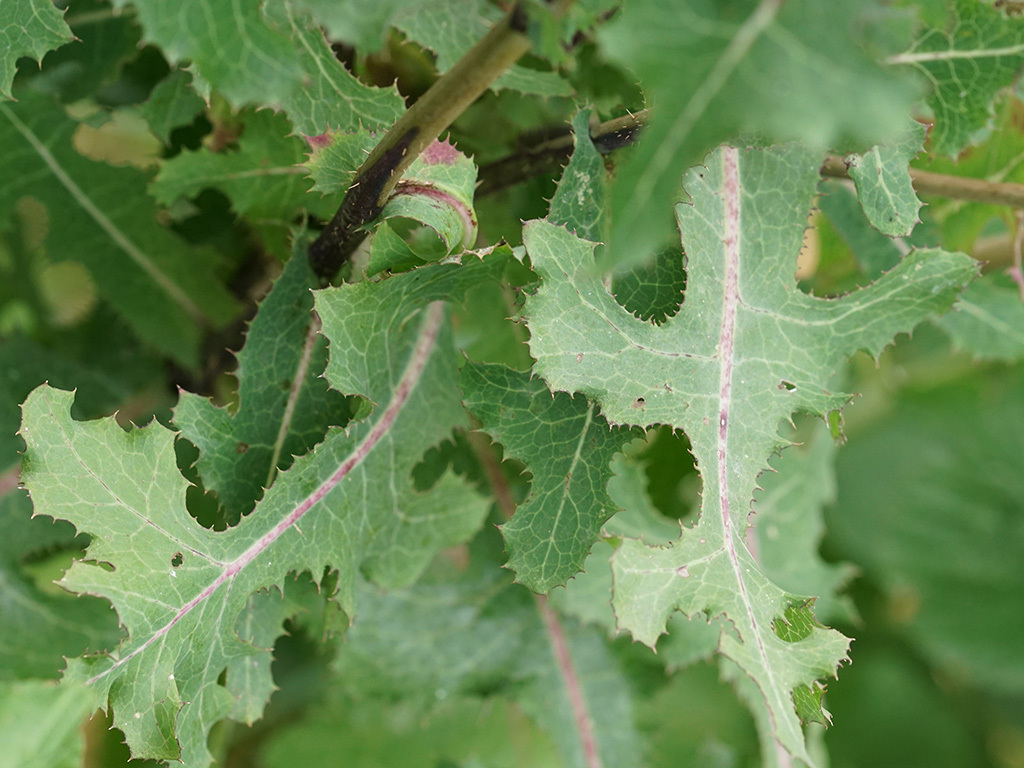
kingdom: Plantae
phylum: Tracheophyta
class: Magnoliopsida
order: Asterales
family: Asteraceae
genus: Lactuca
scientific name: Lactuca virosa
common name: Great lettuce
